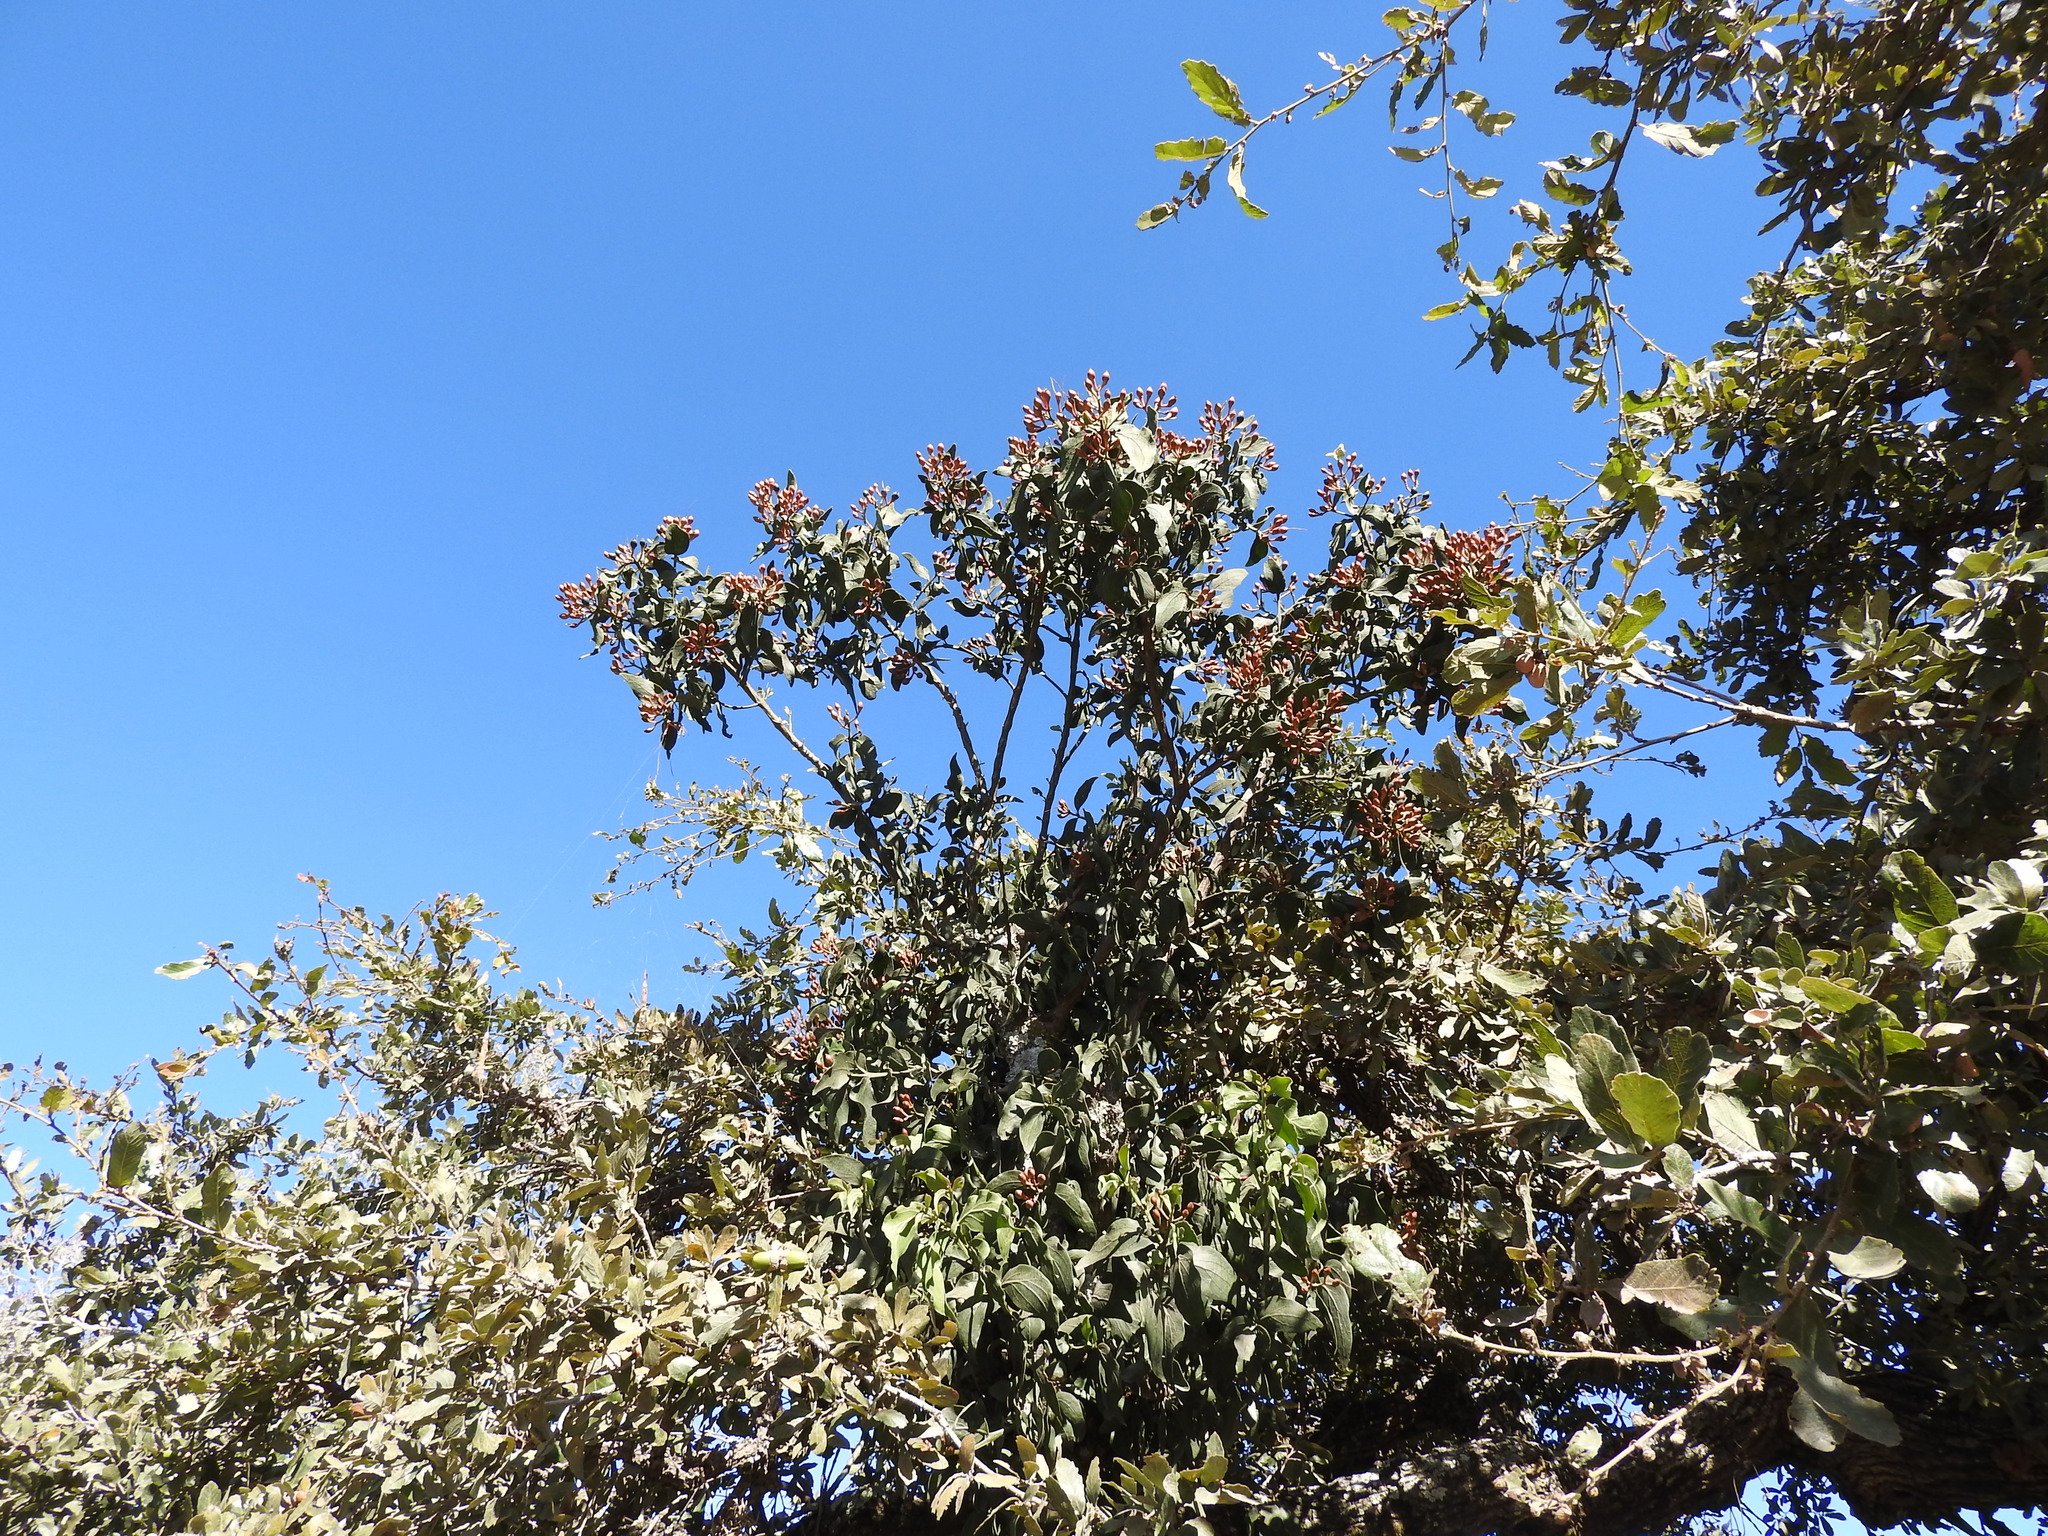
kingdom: Plantae
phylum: Tracheophyta
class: Magnoliopsida
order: Santalales
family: Loranthaceae
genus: Psittacanthus
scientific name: Psittacanthus calyculatus
